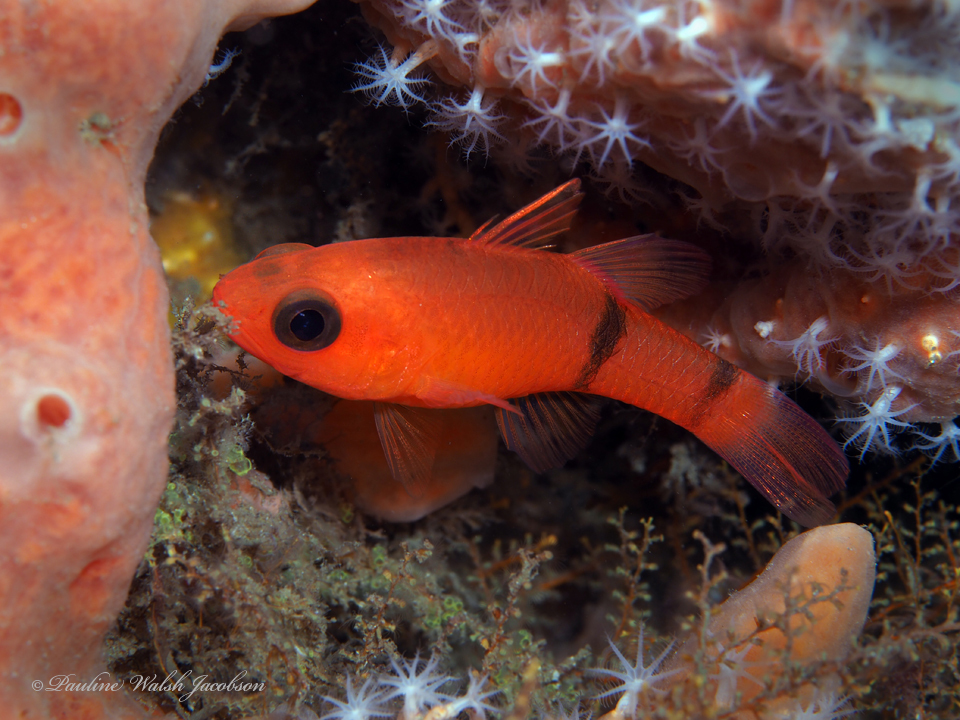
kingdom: Animalia
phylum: Chordata
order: Perciformes
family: Apogonidae
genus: Apogon
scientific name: Apogon binotatus
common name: Barred cardinalfish
